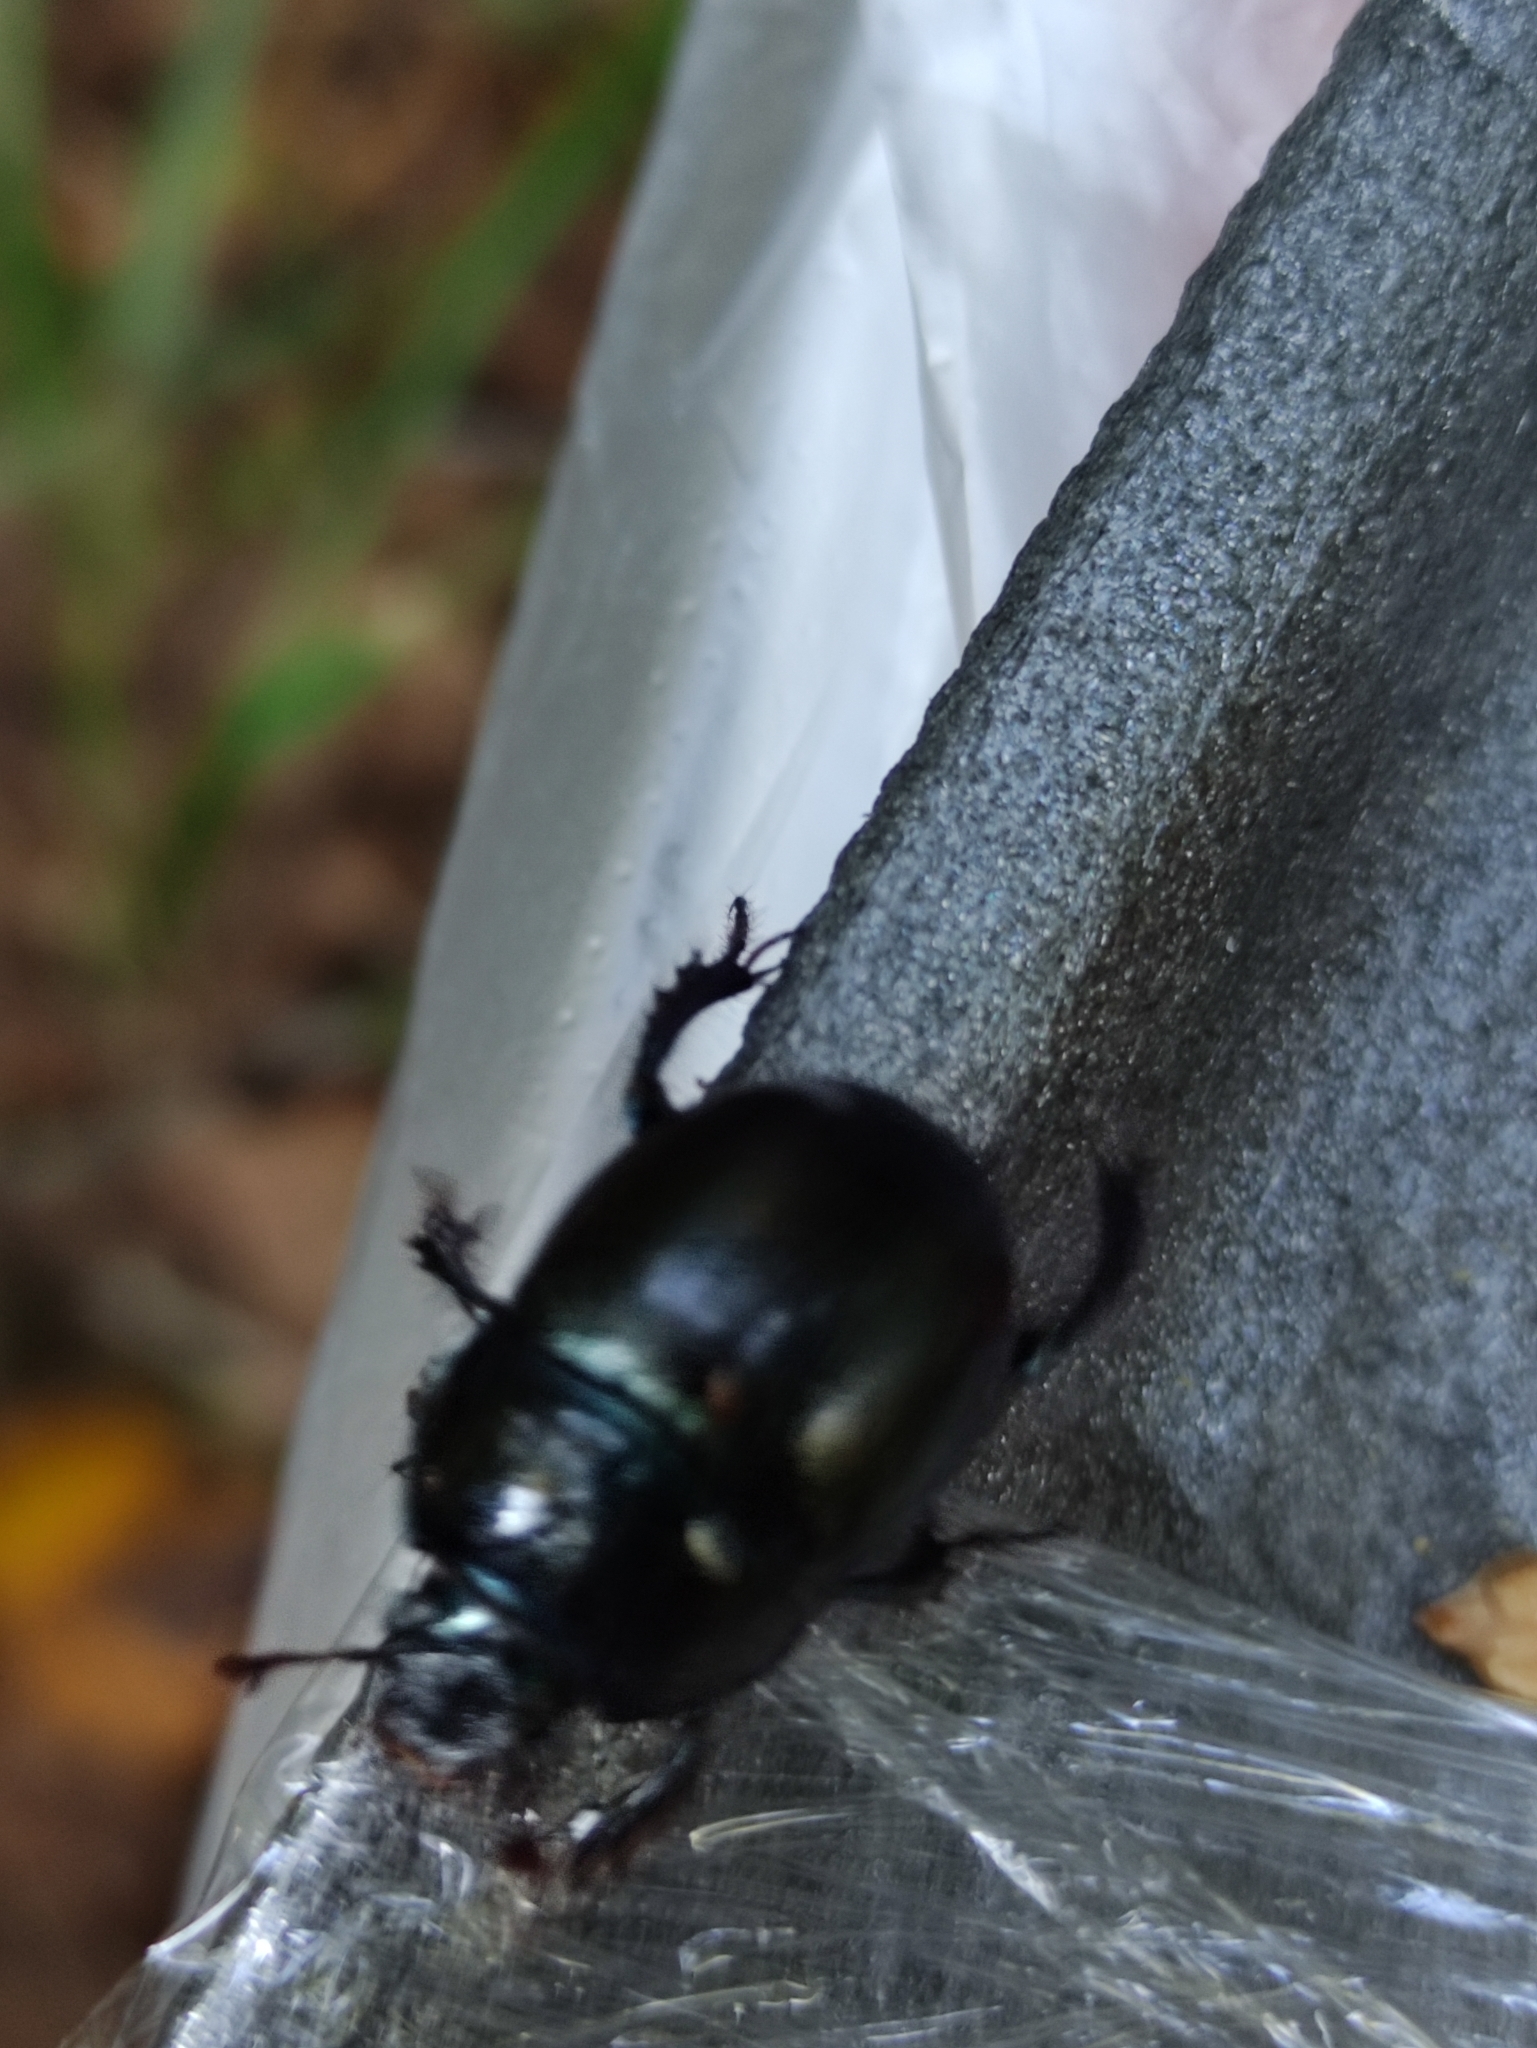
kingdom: Animalia
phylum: Arthropoda
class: Insecta
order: Coleoptera
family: Geotrupidae
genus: Anoplotrupes
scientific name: Anoplotrupes stercorosus
